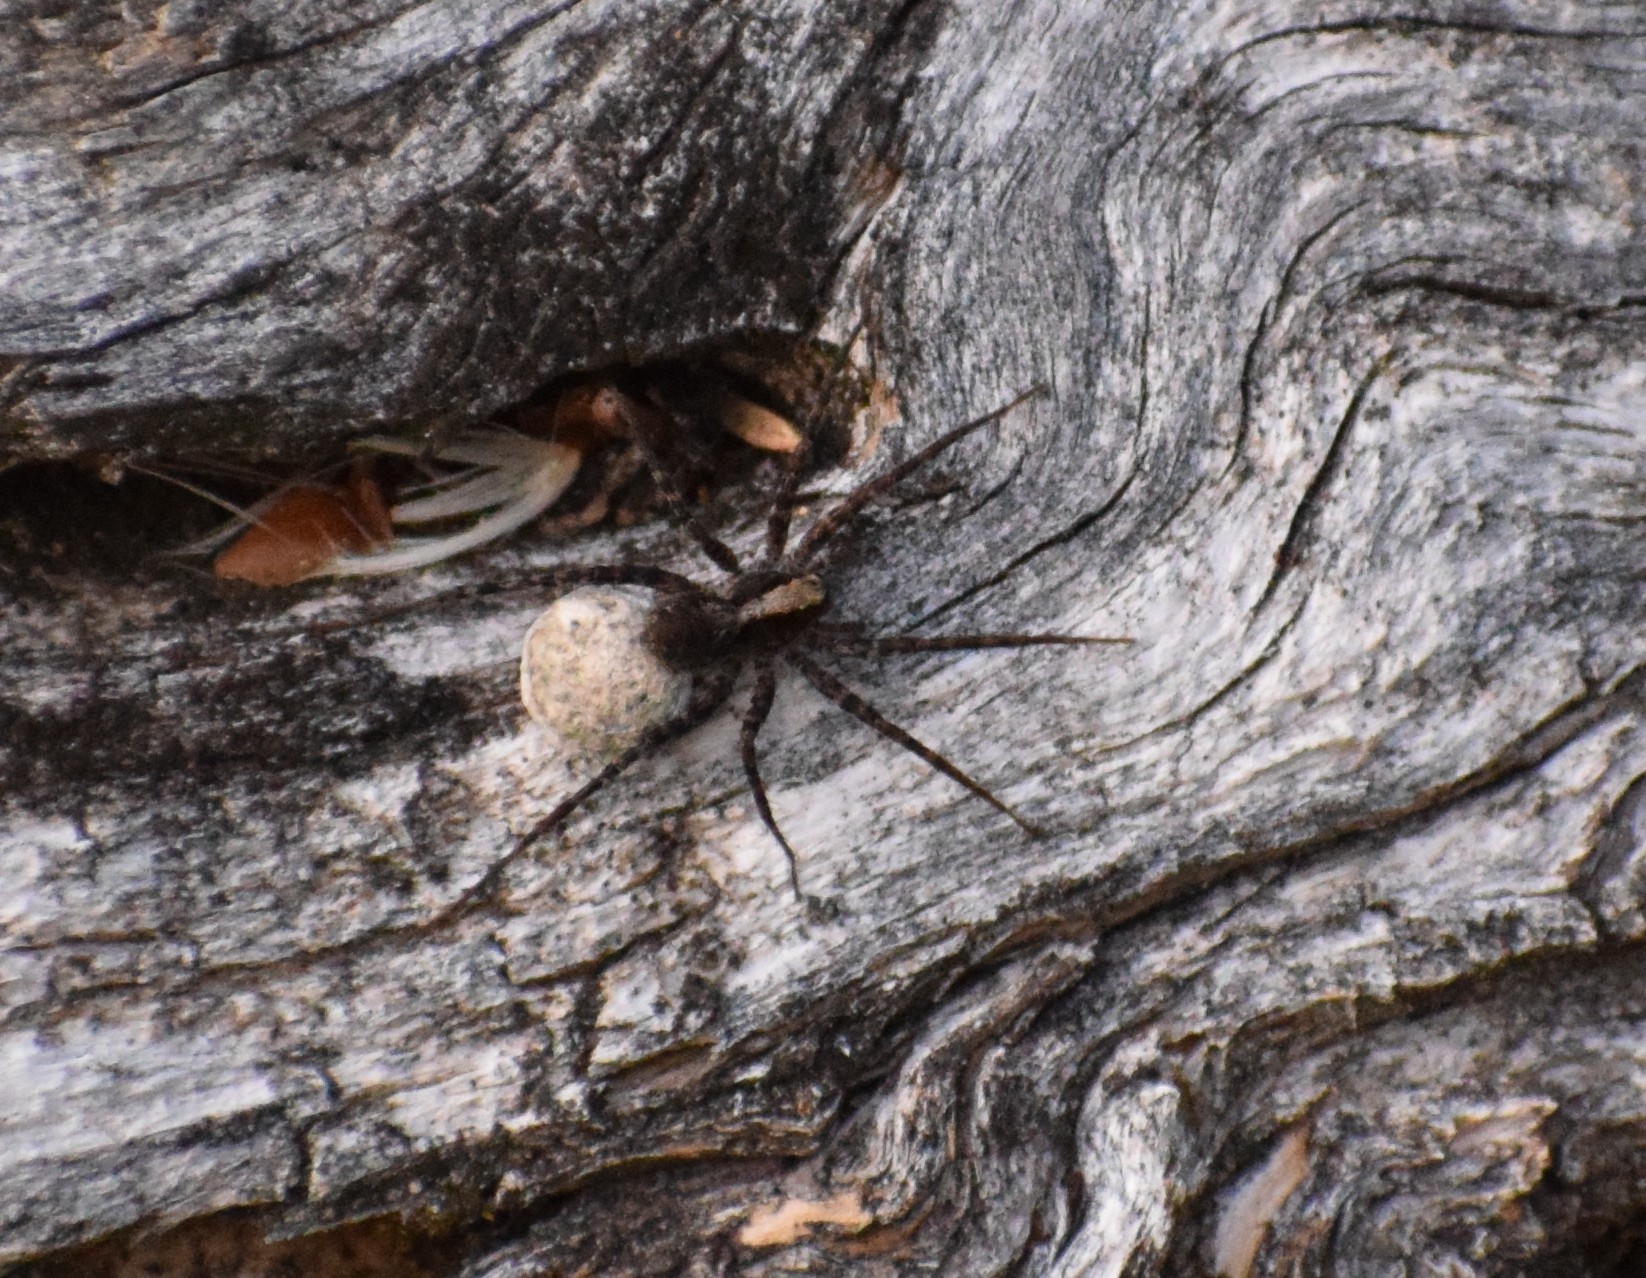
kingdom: Animalia
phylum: Arthropoda
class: Arachnida
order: Araneae
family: Lycosidae
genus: Pardosa
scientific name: Pardosa
